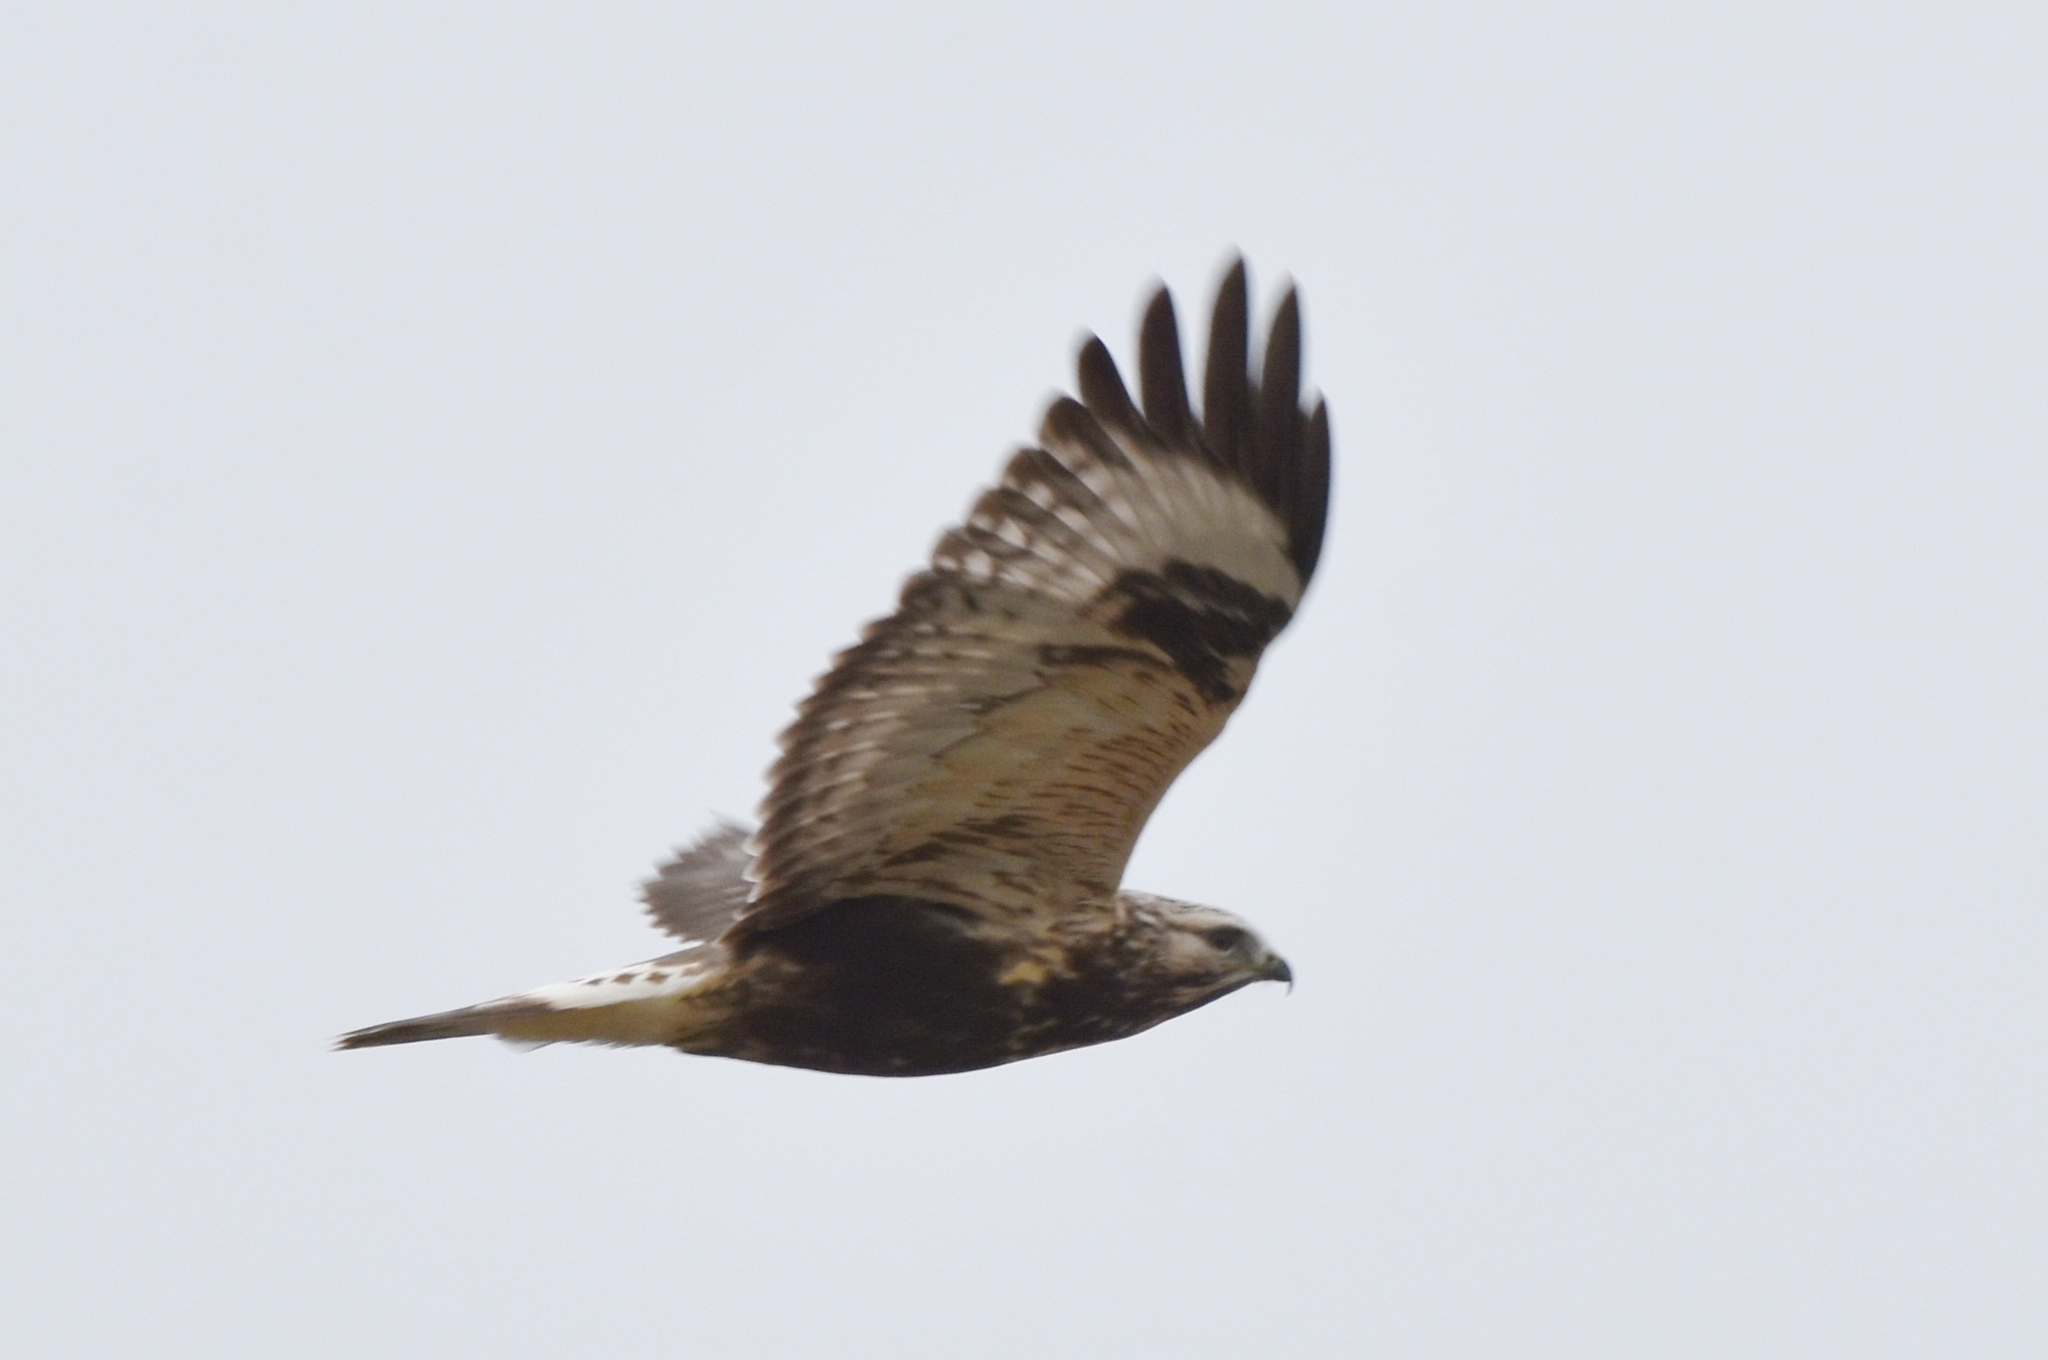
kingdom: Animalia
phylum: Chordata
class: Aves
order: Accipitriformes
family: Accipitridae
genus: Buteo
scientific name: Buteo lagopus
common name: Rough-legged buzzard
